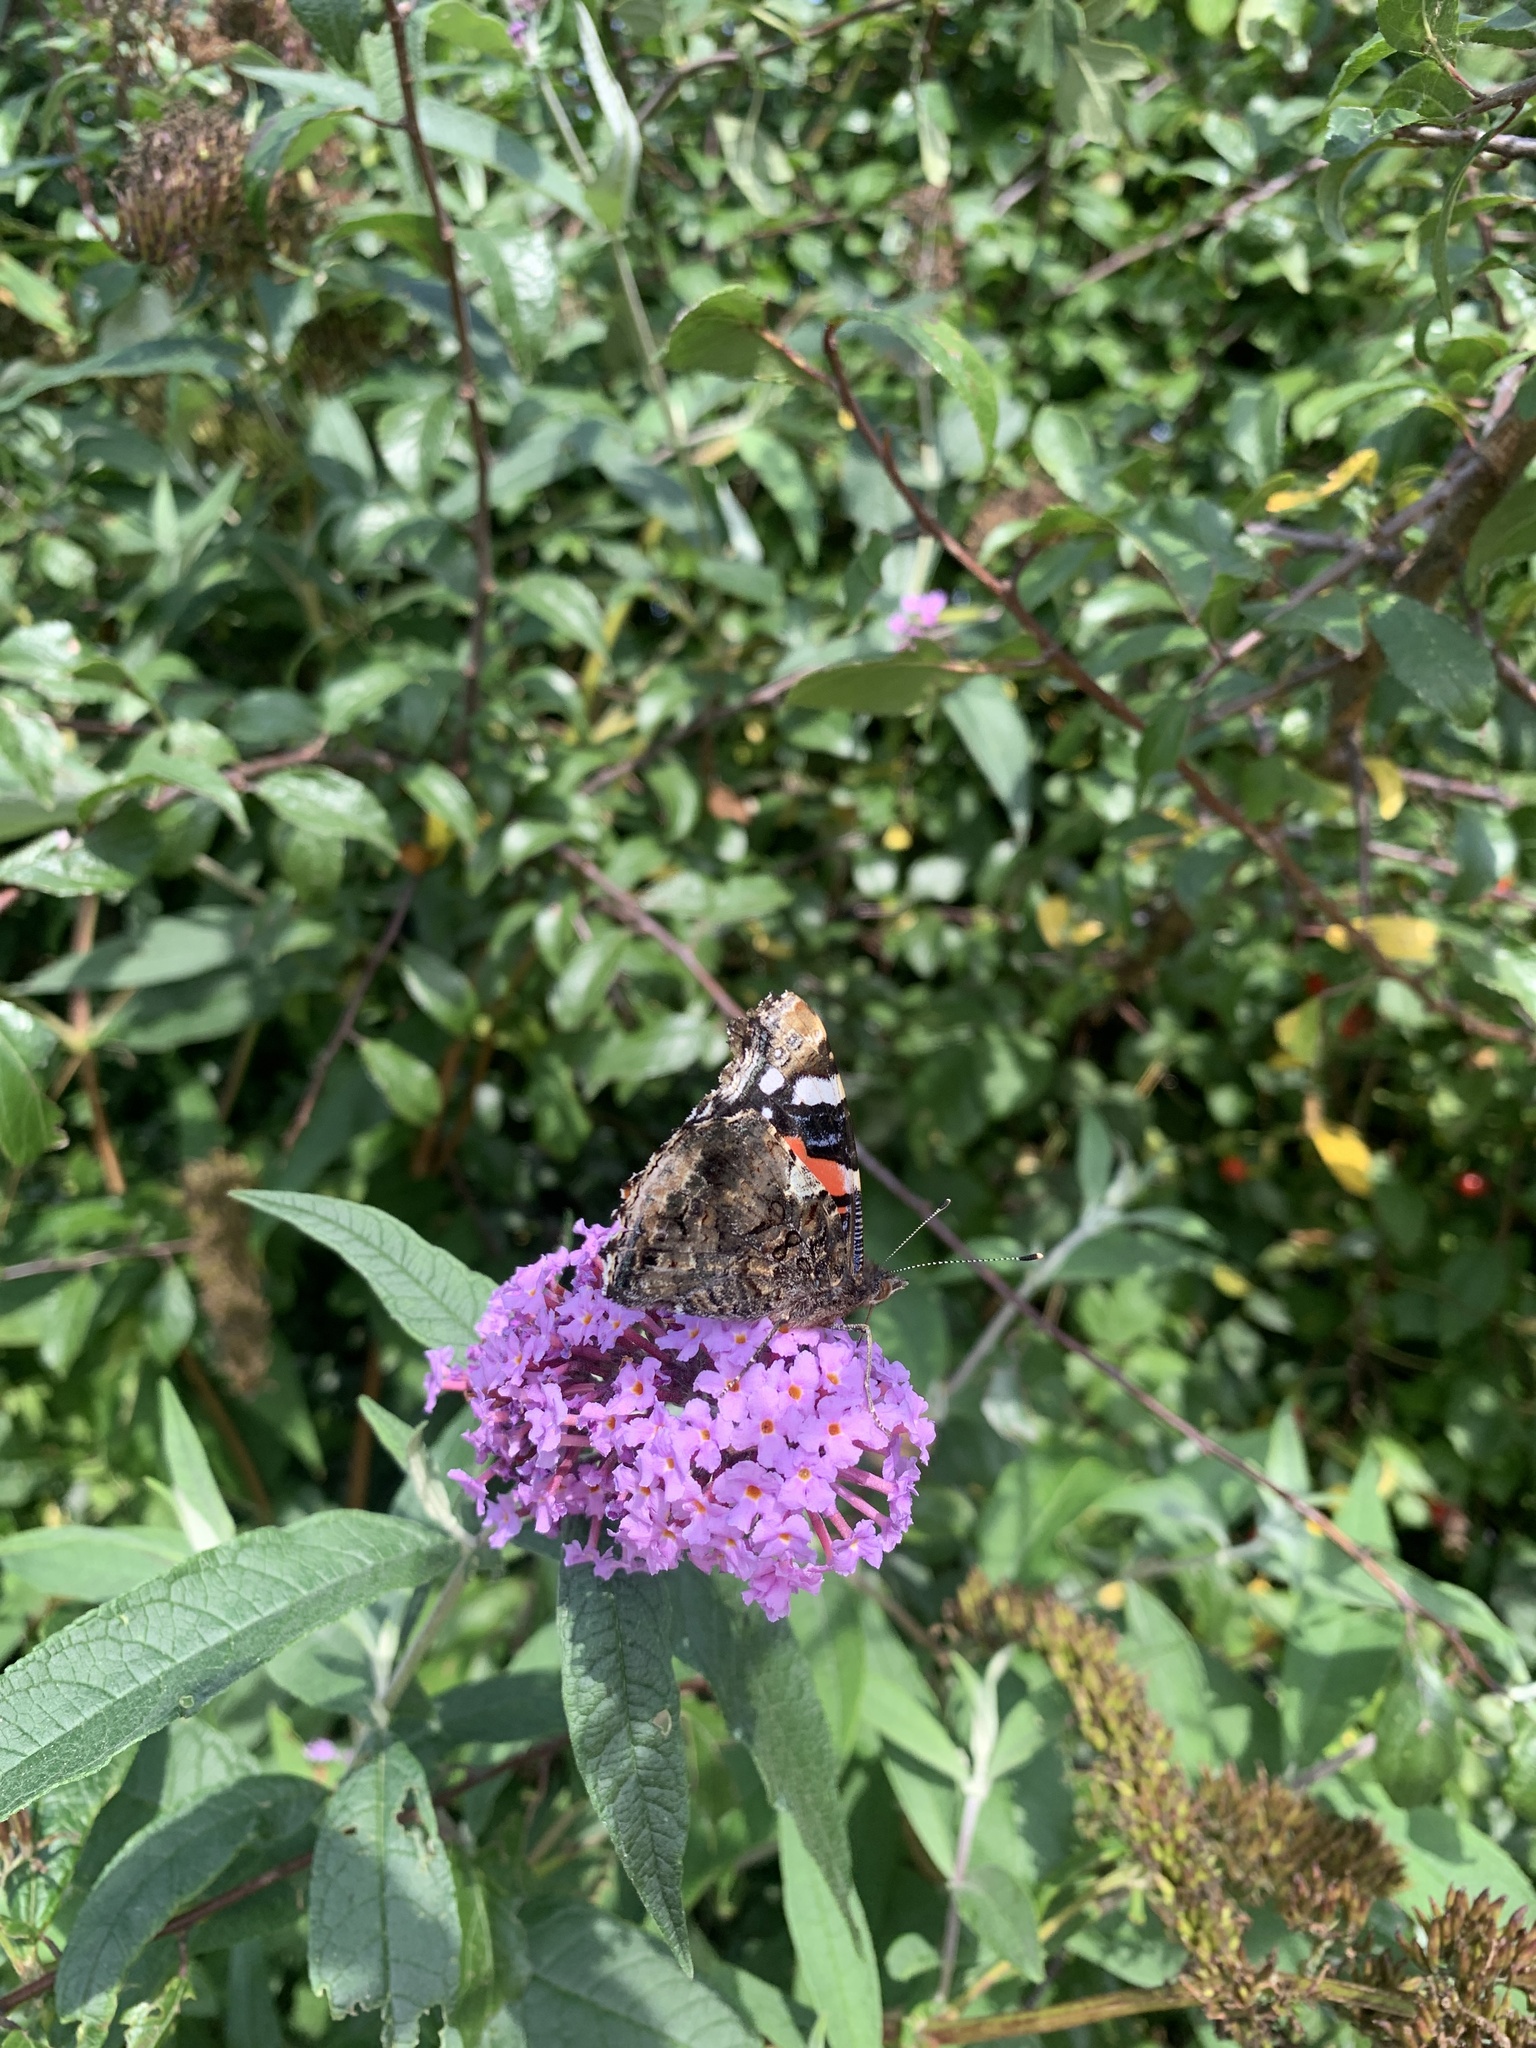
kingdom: Animalia
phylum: Arthropoda
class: Insecta
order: Lepidoptera
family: Nymphalidae
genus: Vanessa
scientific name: Vanessa atalanta
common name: Red admiral
